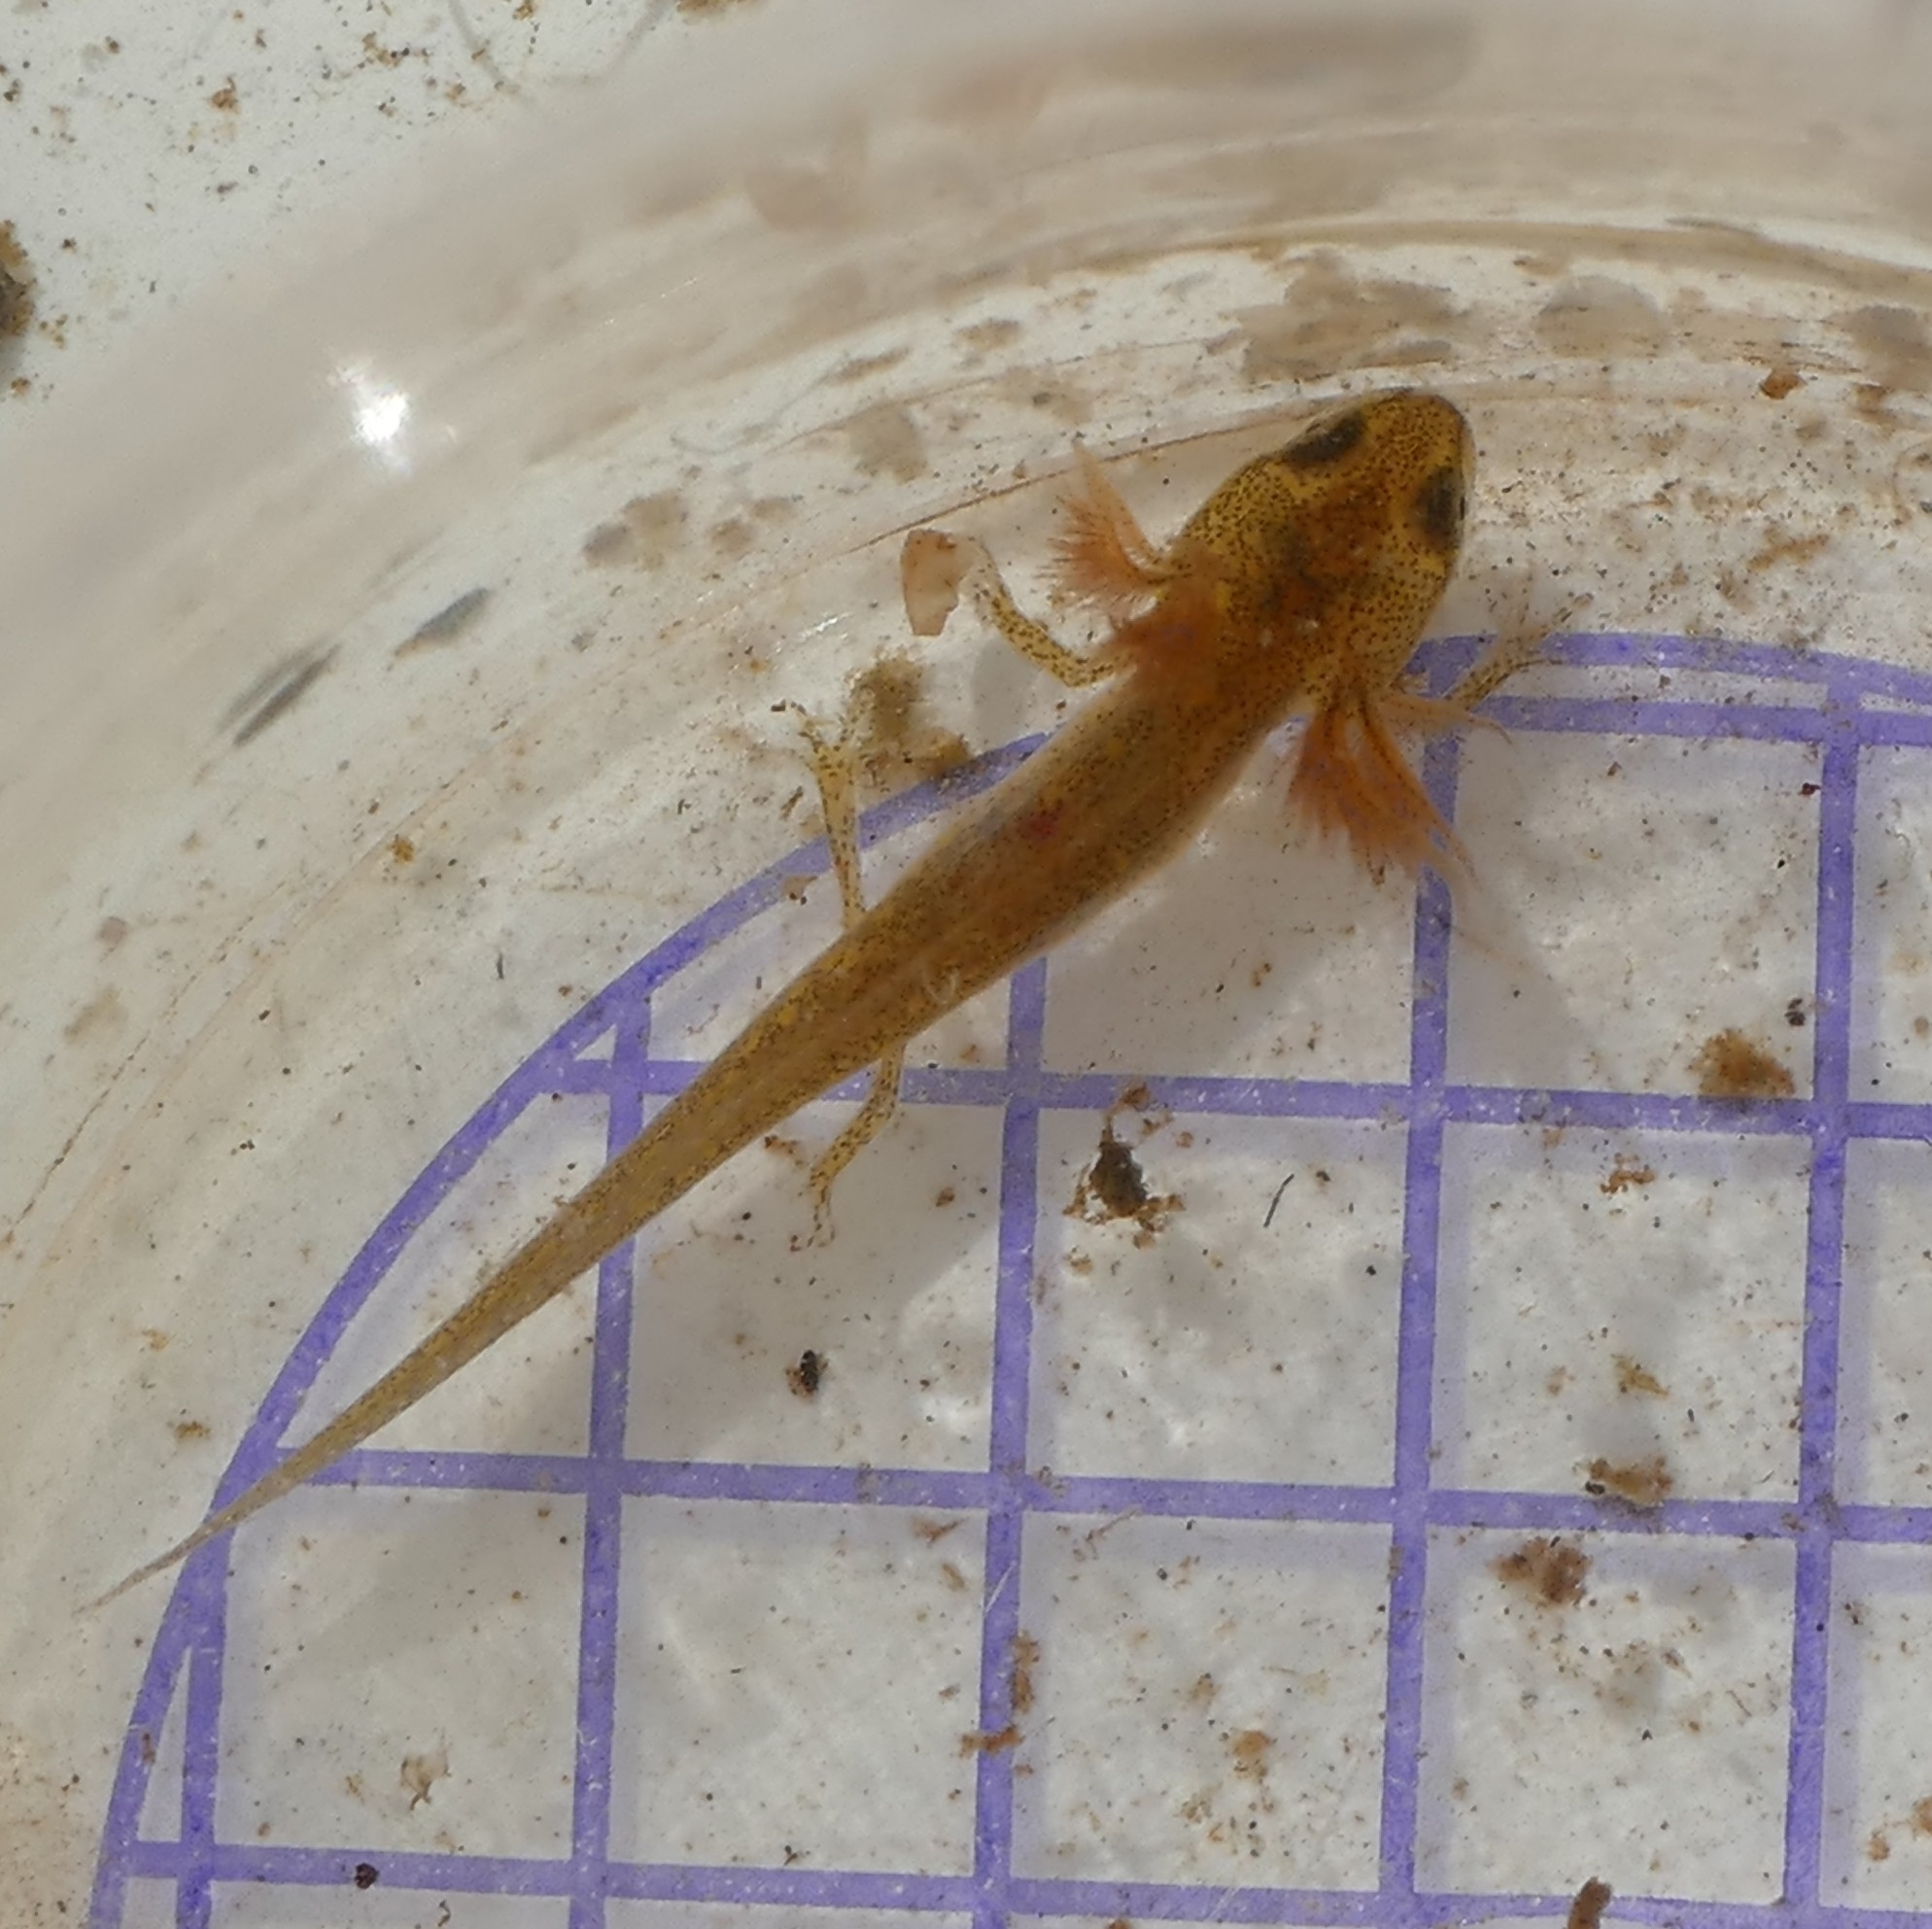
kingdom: Animalia
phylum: Chordata
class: Amphibia
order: Caudata
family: Salamandridae
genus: Lissotriton
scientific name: Lissotriton helveticus
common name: Palmate newt
